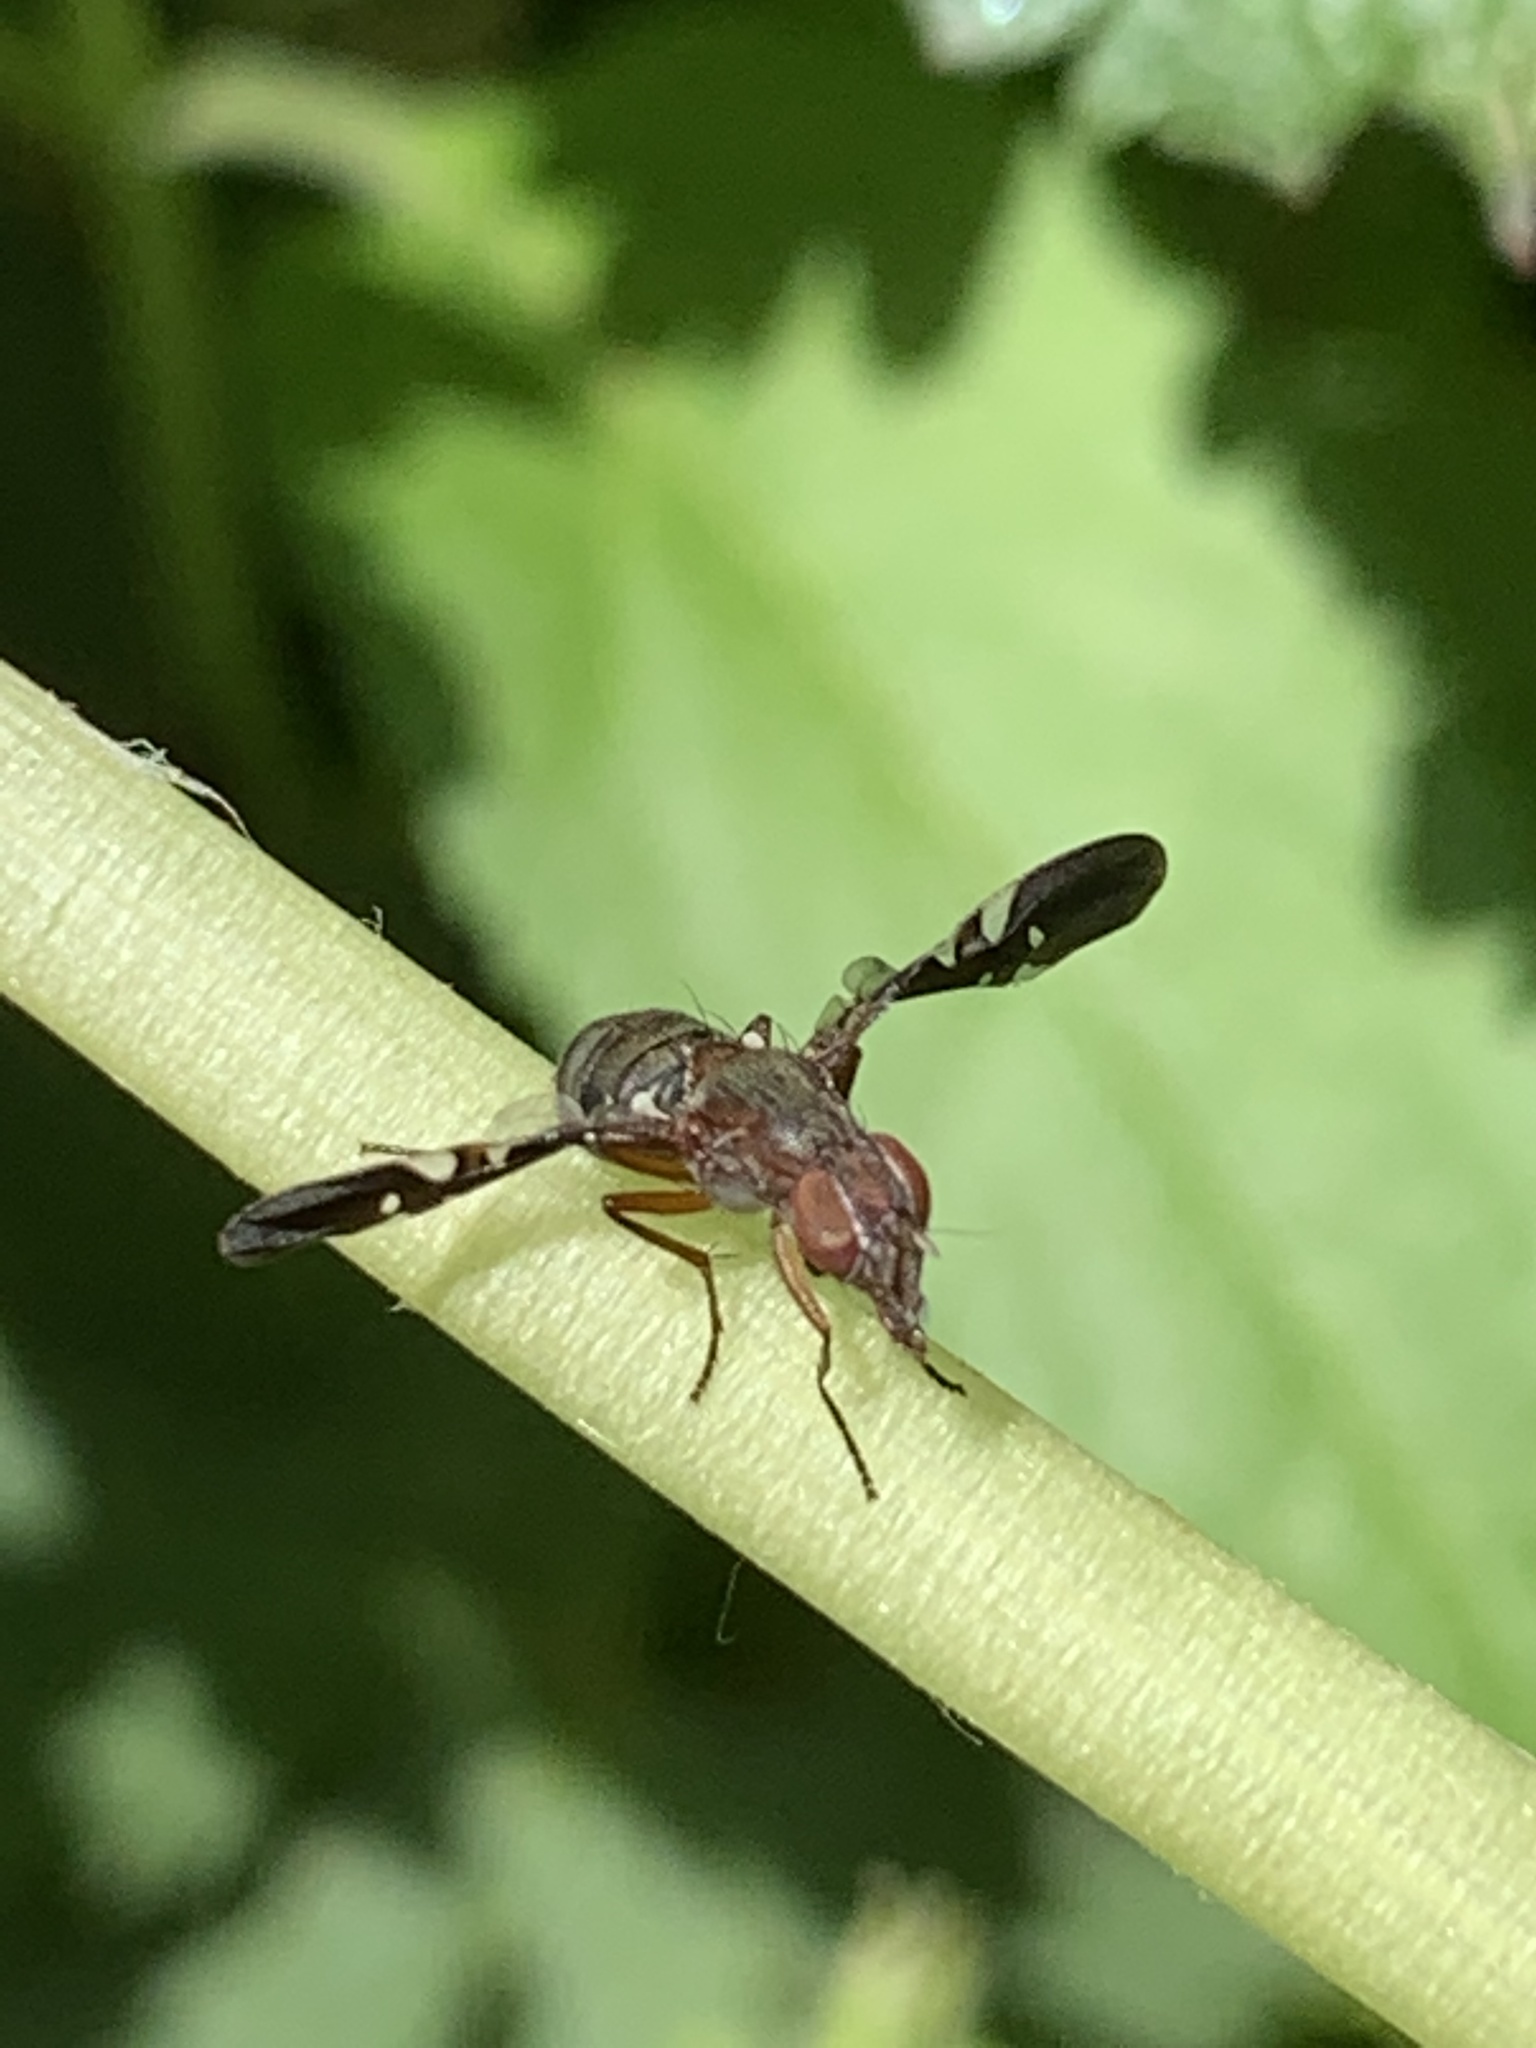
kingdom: Animalia
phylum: Arthropoda
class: Insecta
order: Diptera
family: Ulidiidae
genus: Delphinia
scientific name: Delphinia picta
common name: Common picture-winged fly
